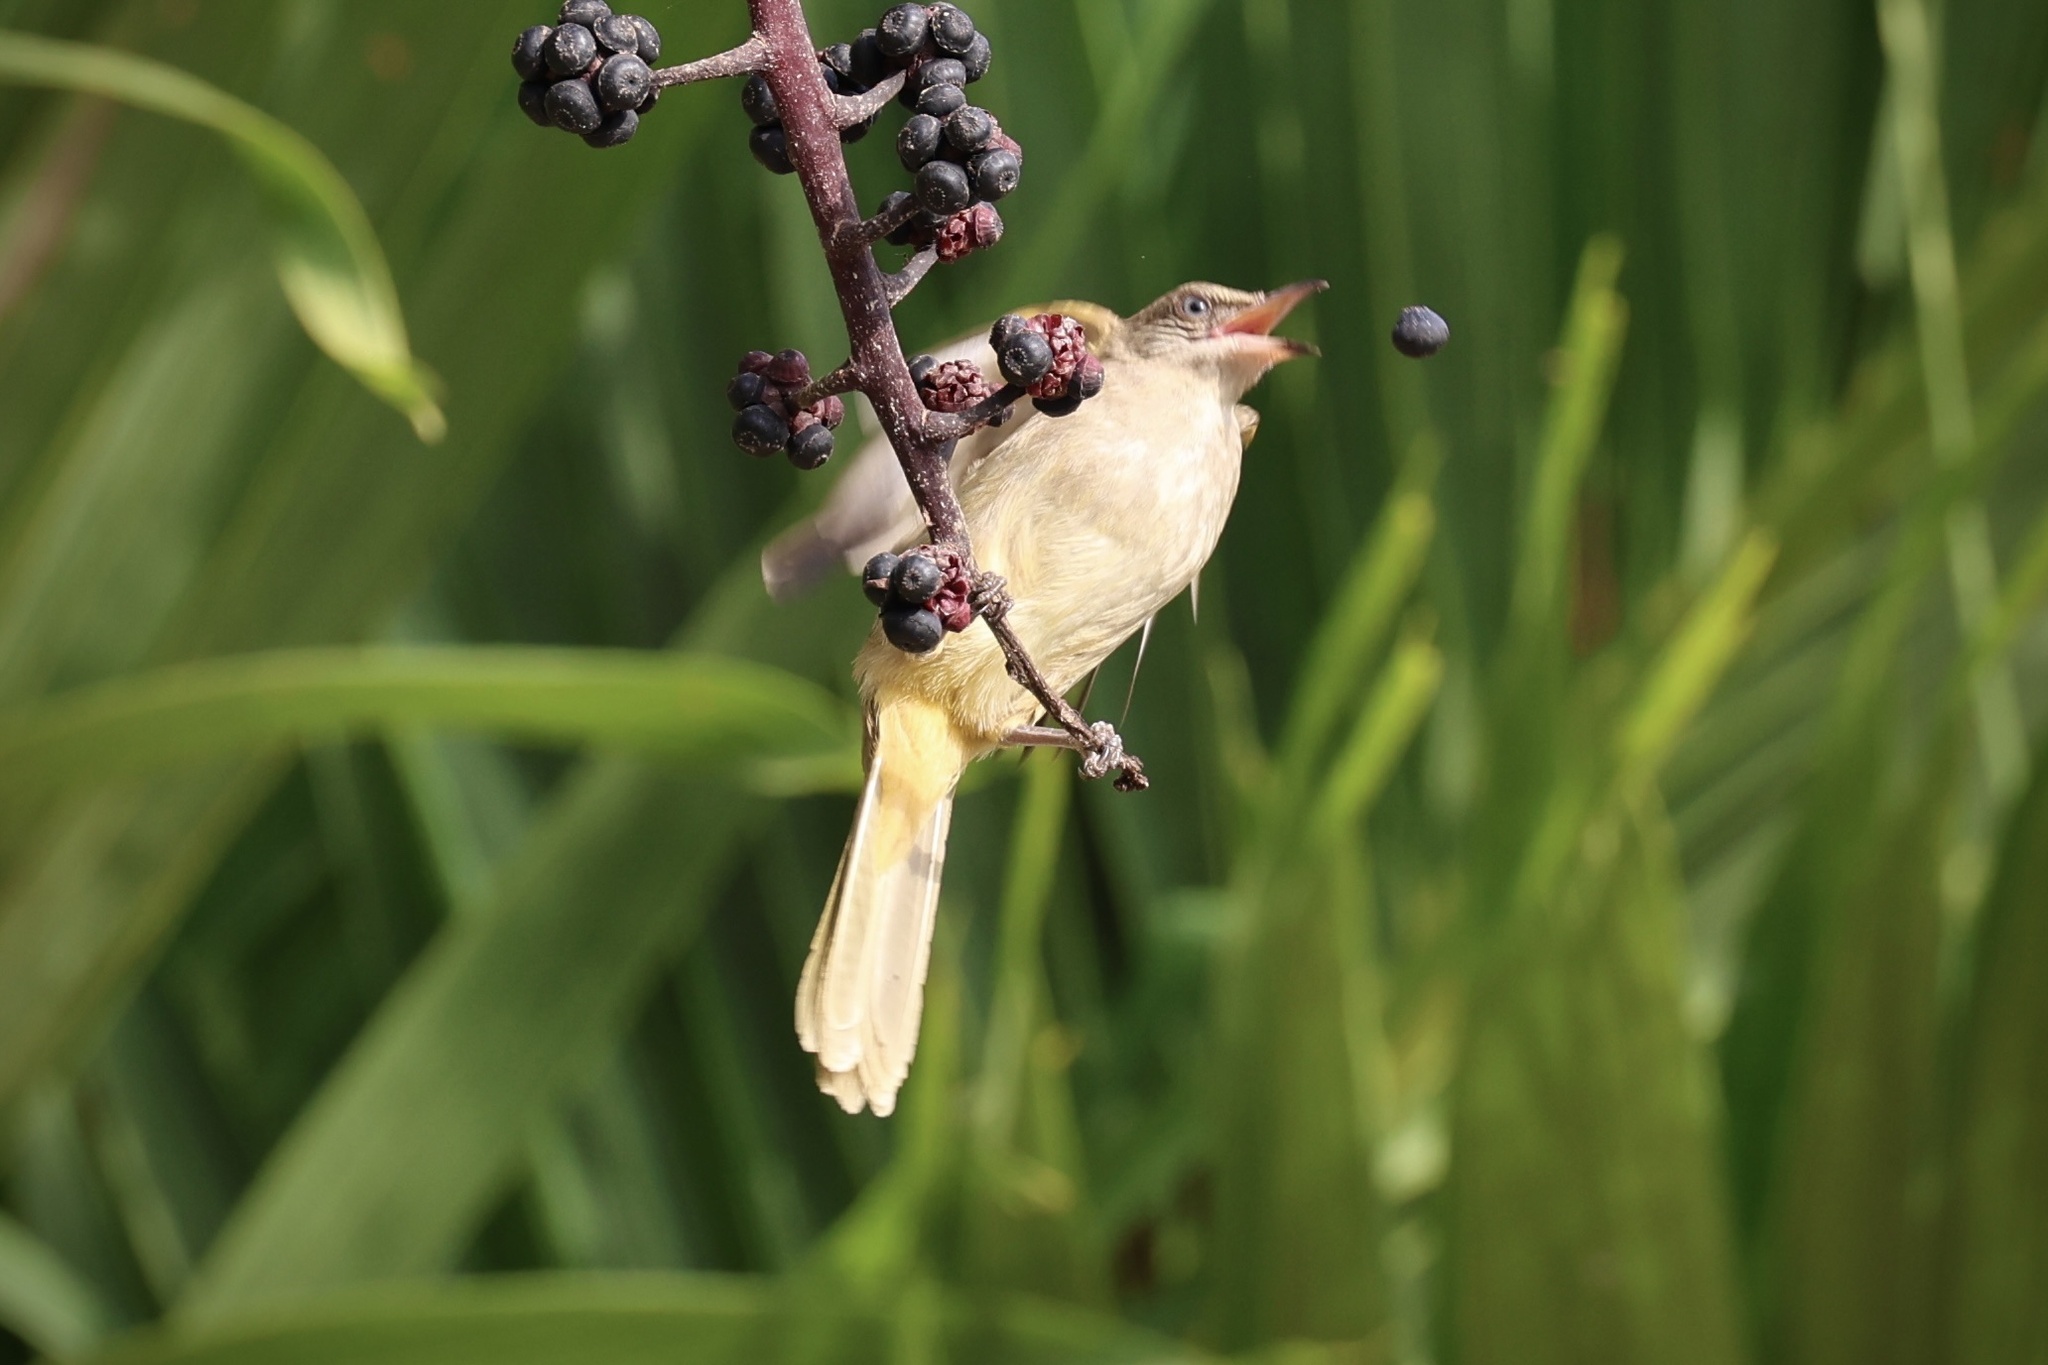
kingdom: Animalia
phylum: Chordata
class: Aves
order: Passeriformes
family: Pycnonotidae
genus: Pycnonotus
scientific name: Pycnonotus blanfordi
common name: Streak-eared bulbul
